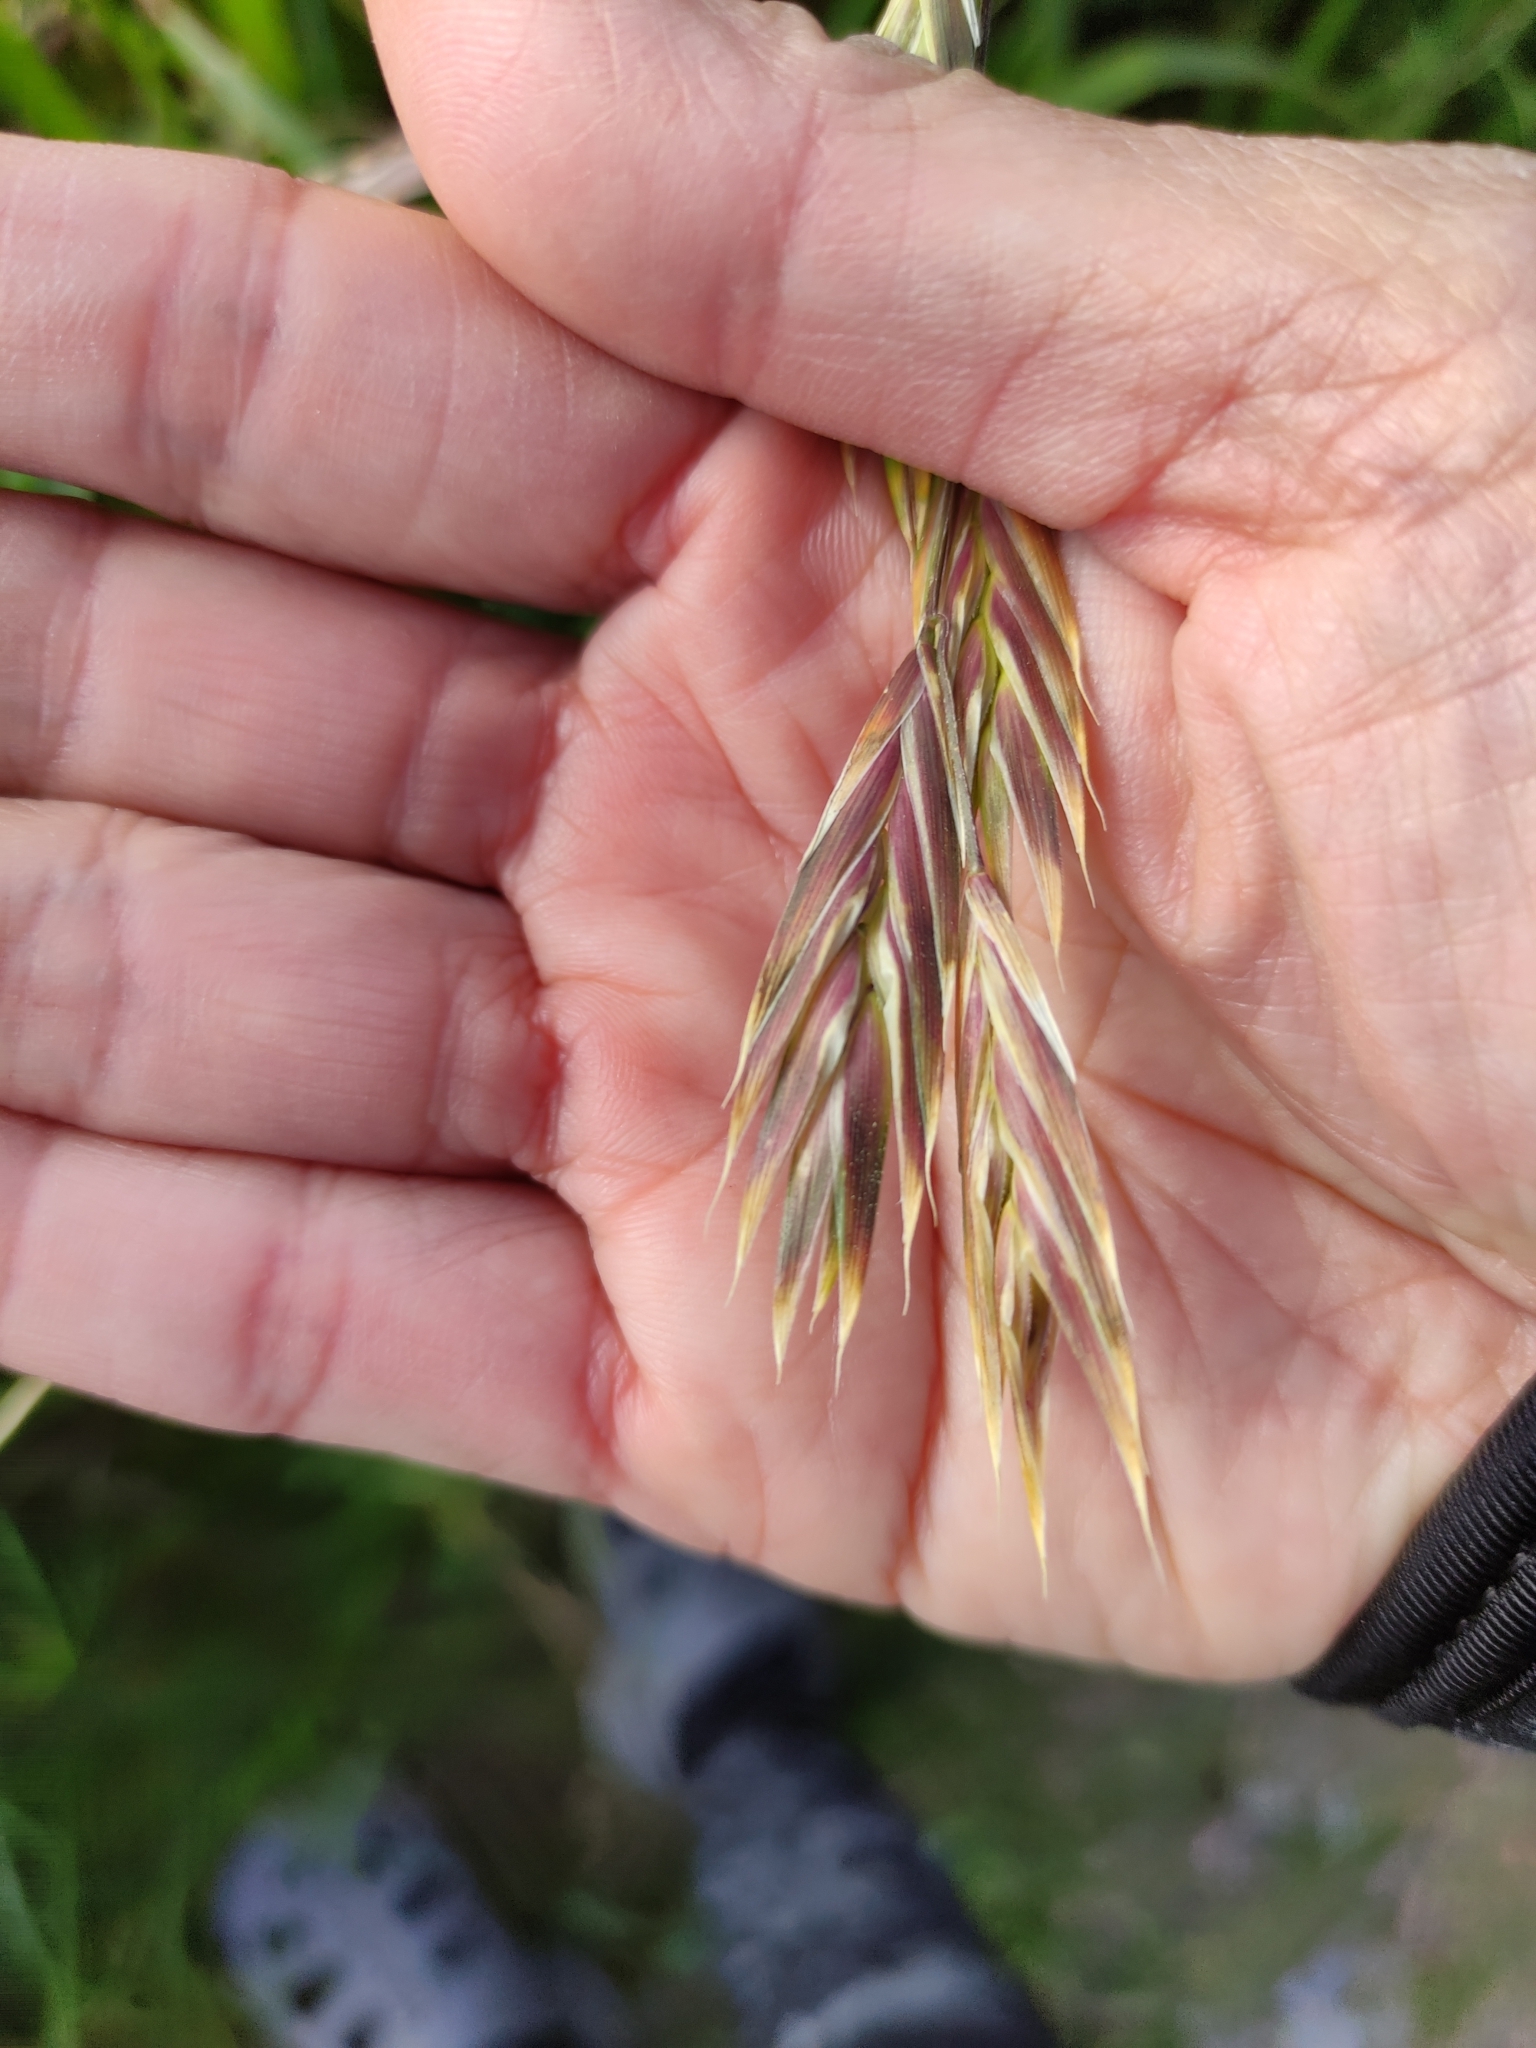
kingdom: Plantae
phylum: Tracheophyta
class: Liliopsida
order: Poales
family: Poaceae
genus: Bromus
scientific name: Bromus catharticus
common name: Rescuegrass
